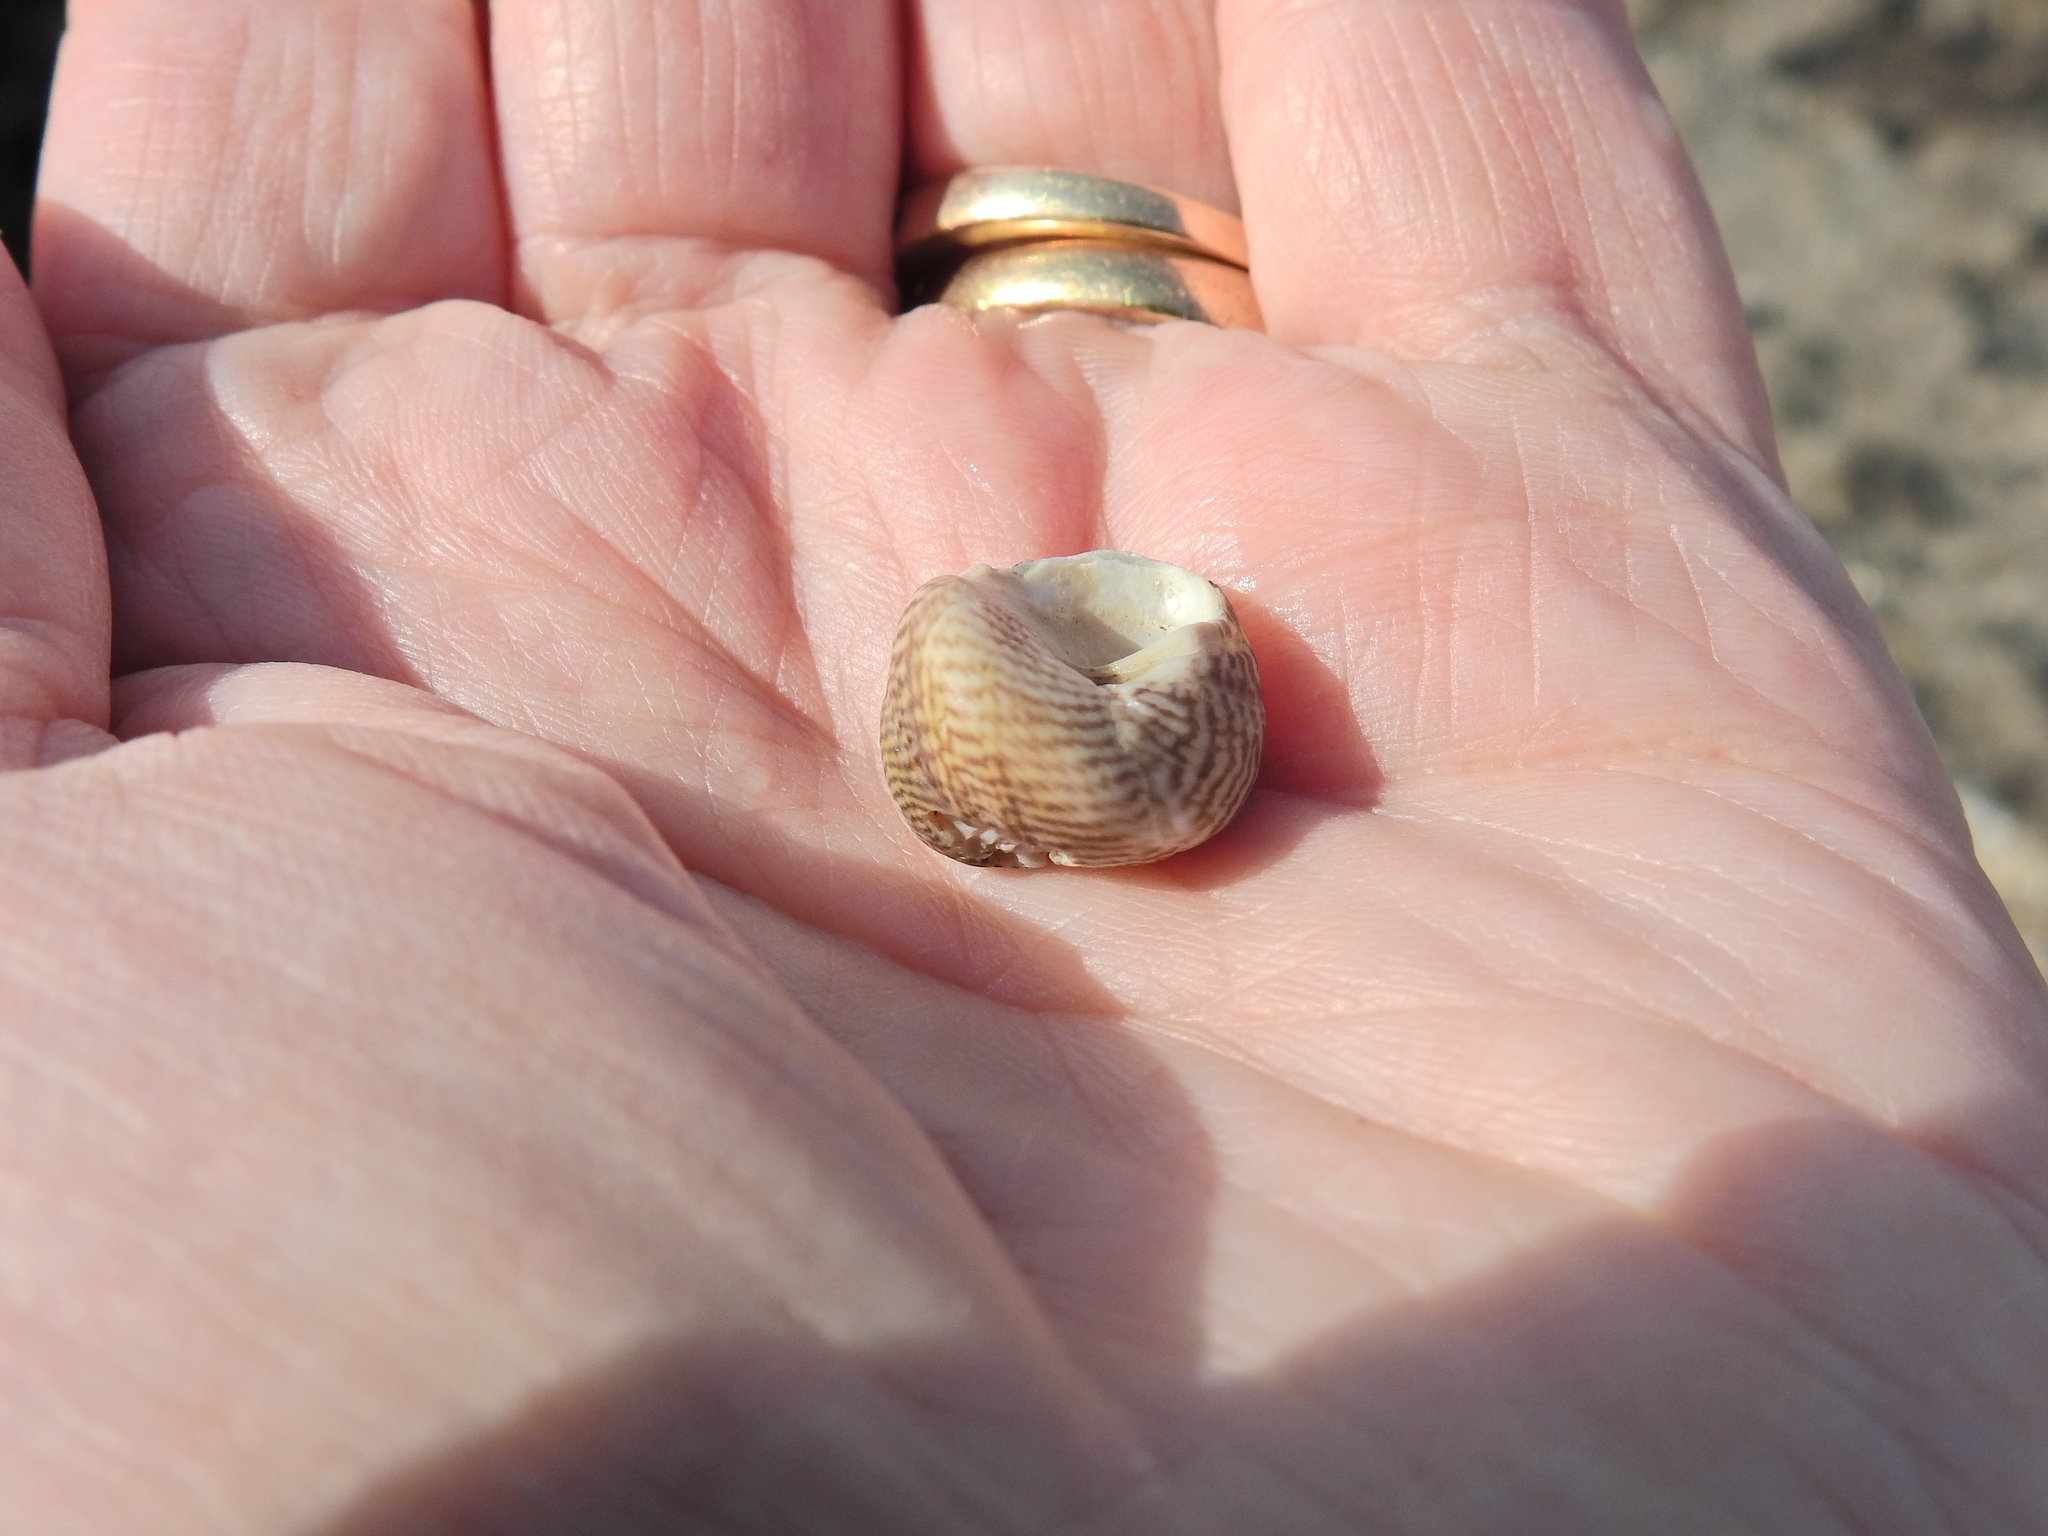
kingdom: Animalia
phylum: Mollusca
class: Gastropoda
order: Trochida
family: Trochidae
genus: Steromphala
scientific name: Steromphala cineraria
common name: Grey top shell
